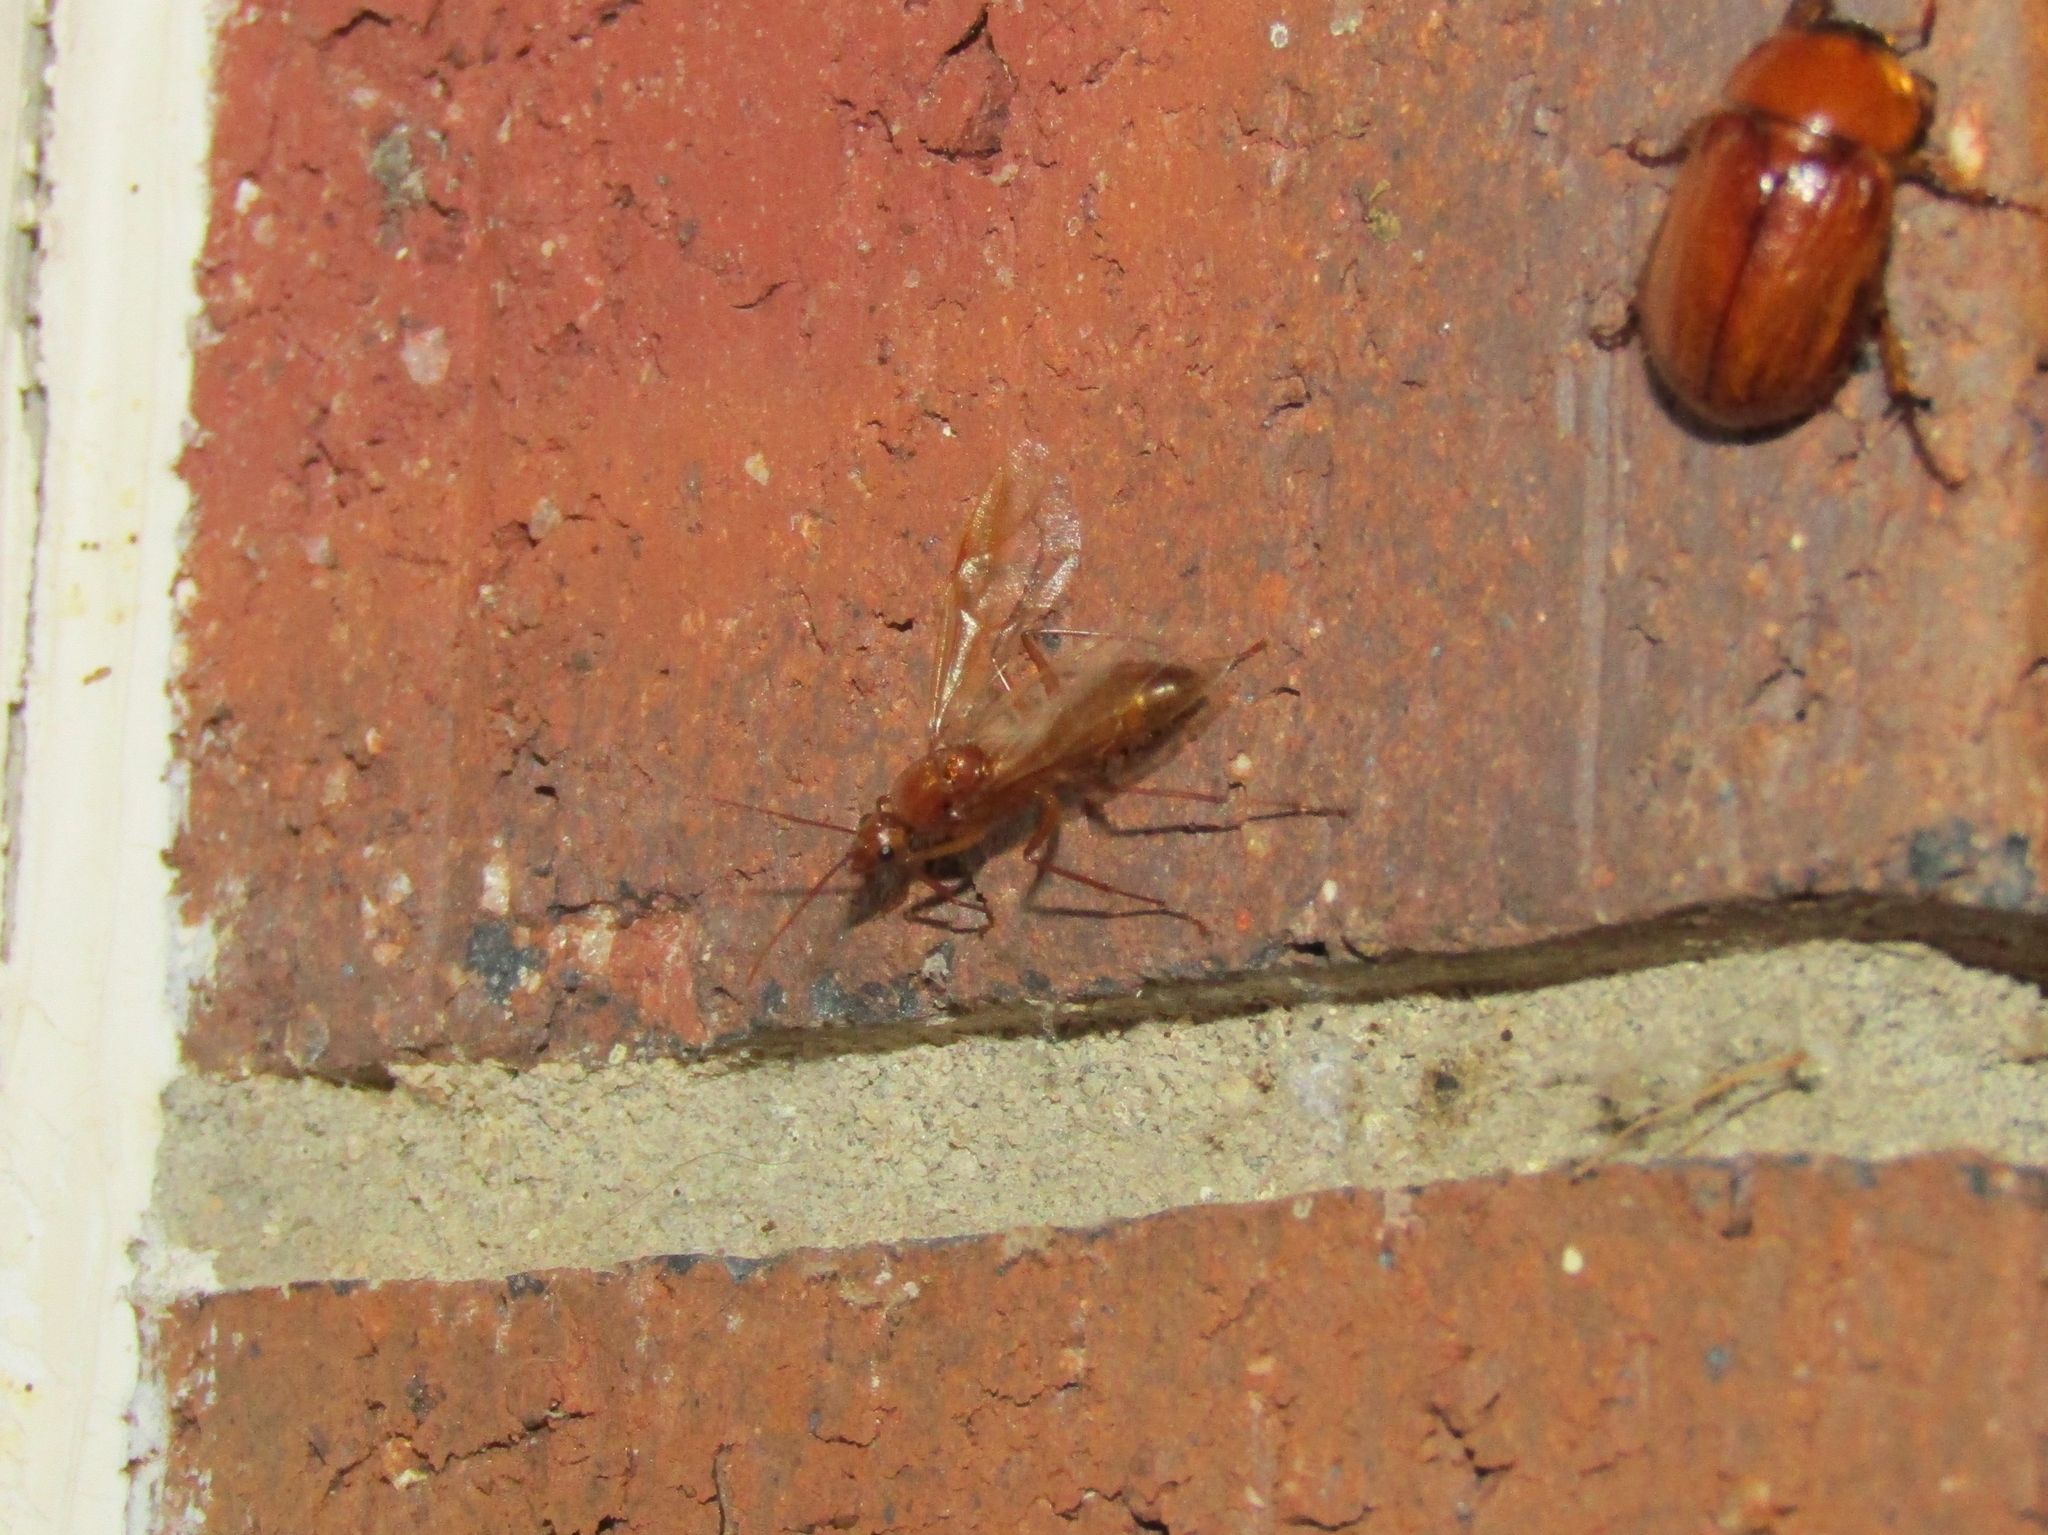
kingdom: Animalia
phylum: Arthropoda
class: Insecta
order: Hymenoptera
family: Formicidae
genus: Camponotus
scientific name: Camponotus castaneus
